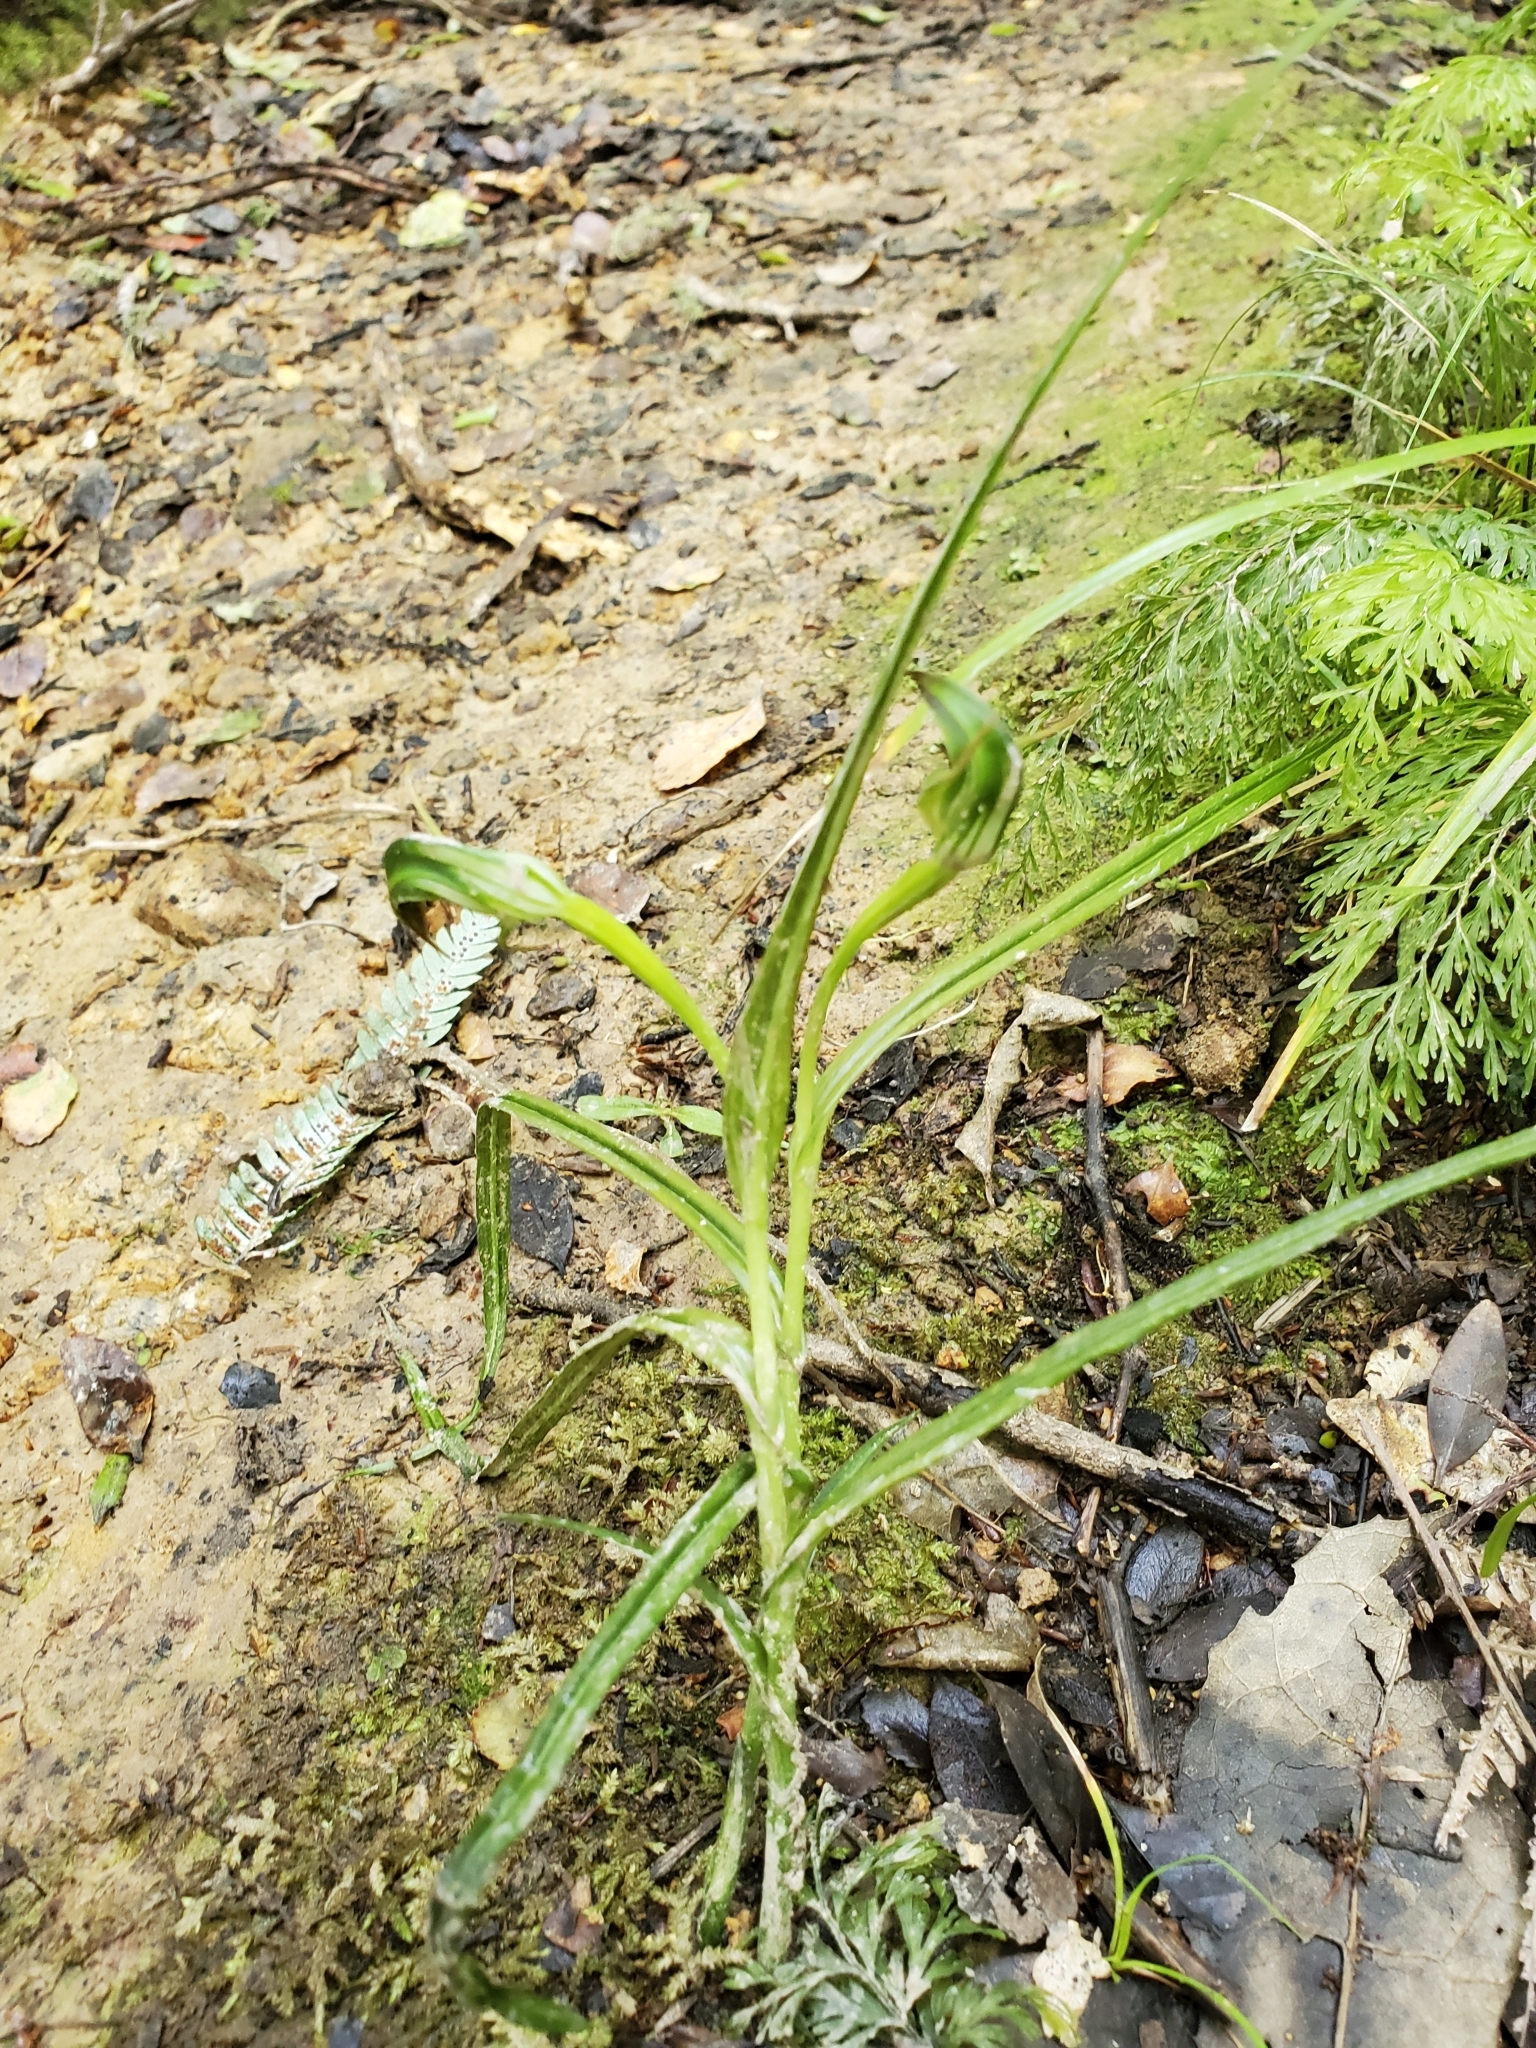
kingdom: Plantae
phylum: Tracheophyta
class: Liliopsida
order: Asparagales
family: Orchidaceae
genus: Pterostylis
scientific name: Pterostylis graminea
